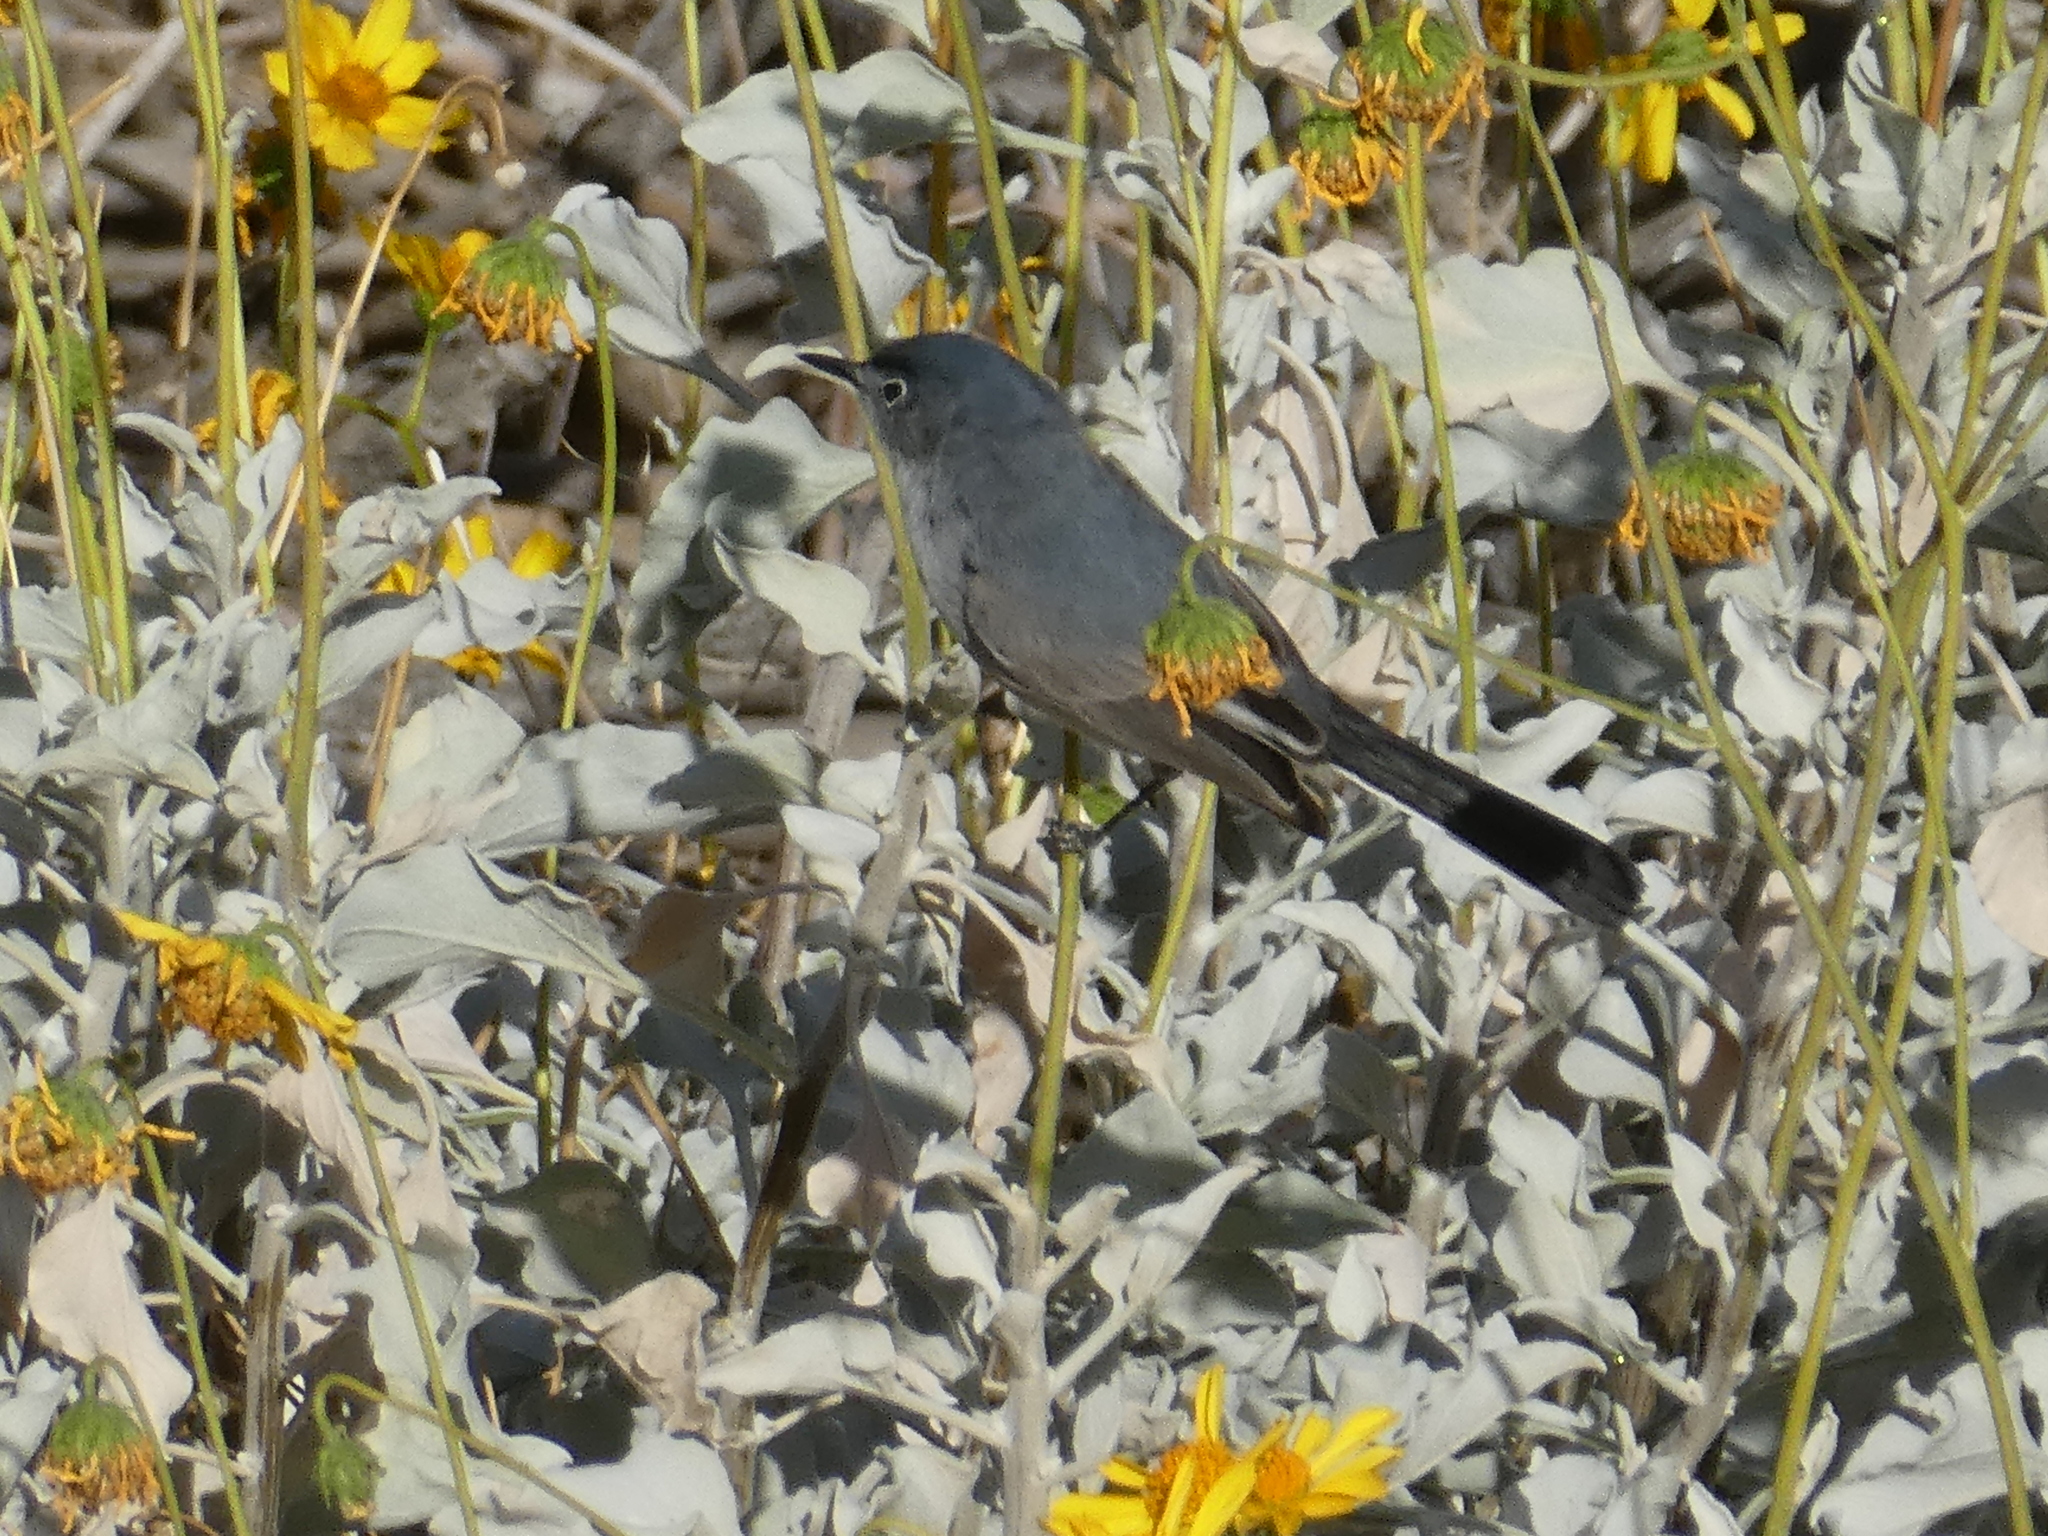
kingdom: Animalia
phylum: Chordata
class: Aves
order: Passeriformes
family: Polioptilidae
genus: Polioptila
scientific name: Polioptila melanura
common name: Black-tailed gnatcatcher
